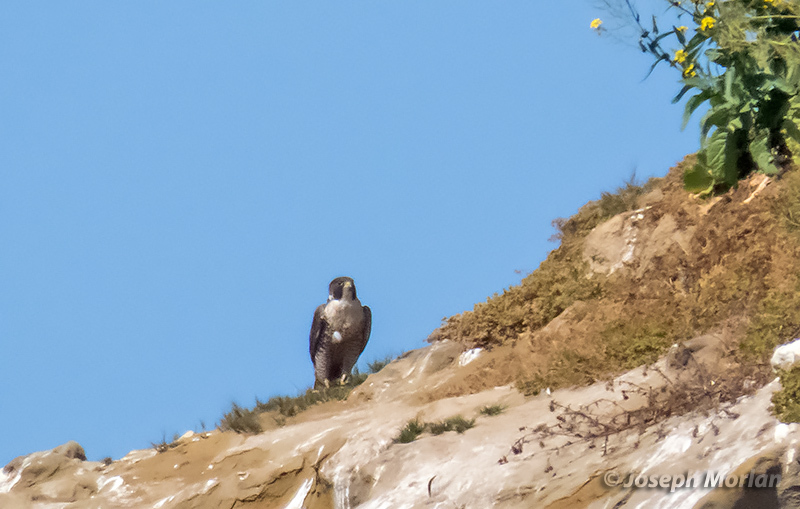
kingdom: Animalia
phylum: Chordata
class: Aves
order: Falconiformes
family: Falconidae
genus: Falco
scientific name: Falco peregrinus
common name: Peregrine falcon
